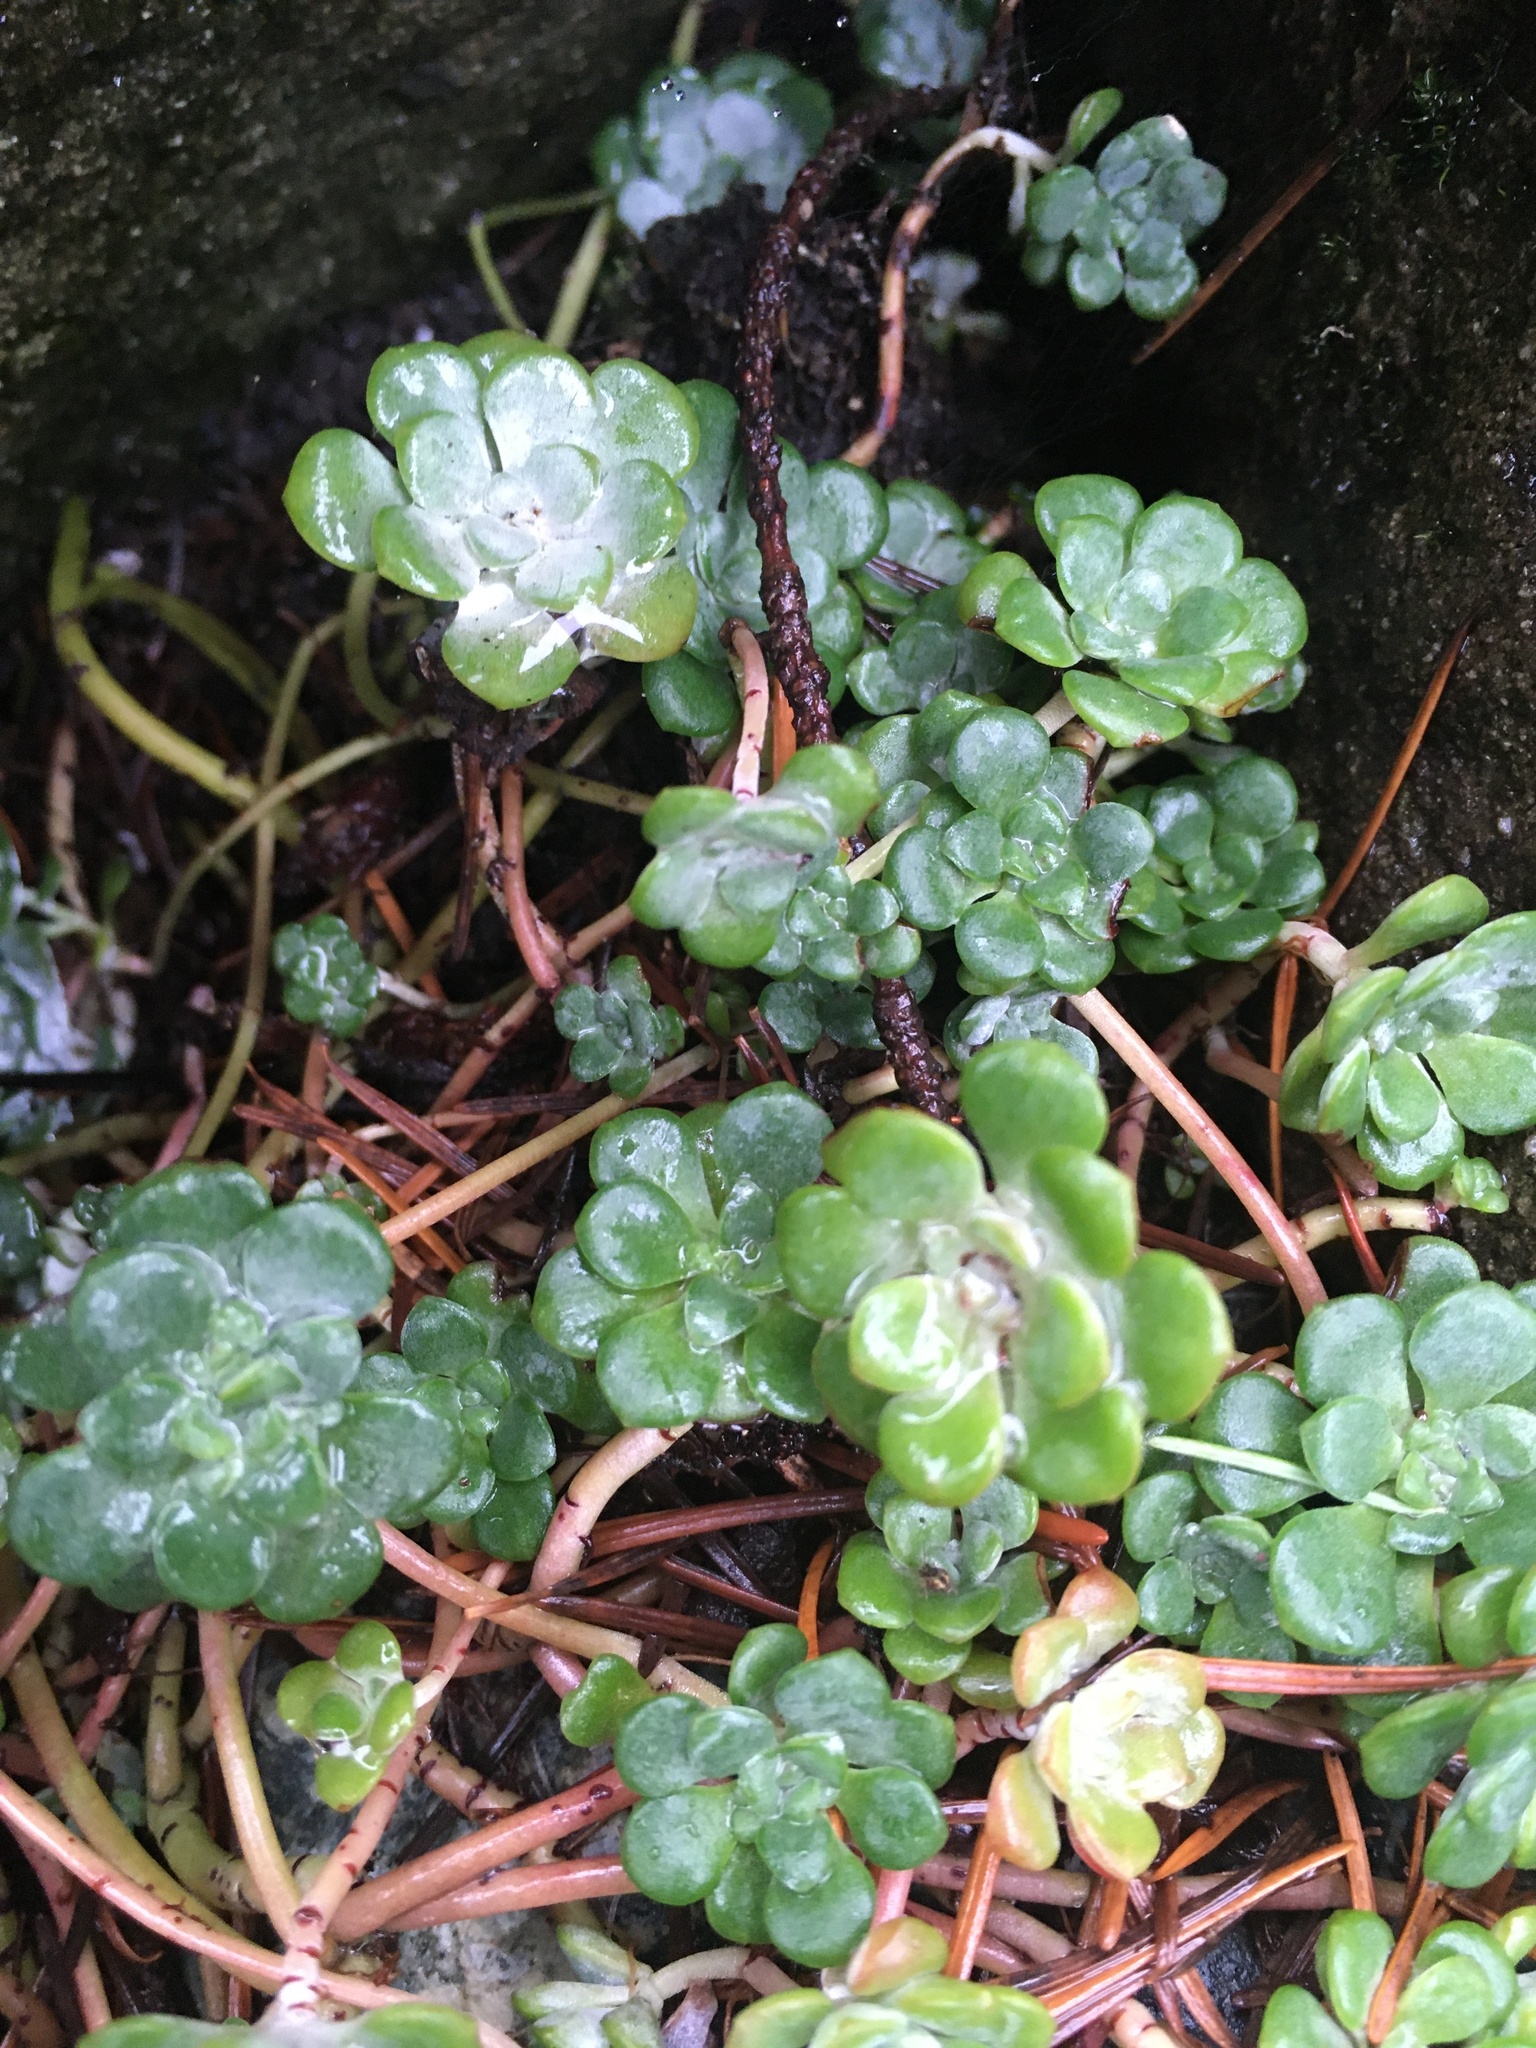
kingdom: Plantae
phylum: Tracheophyta
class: Magnoliopsida
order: Saxifragales
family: Crassulaceae
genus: Sedum
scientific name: Sedum spathulifolium
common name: Colorado stonecrop
